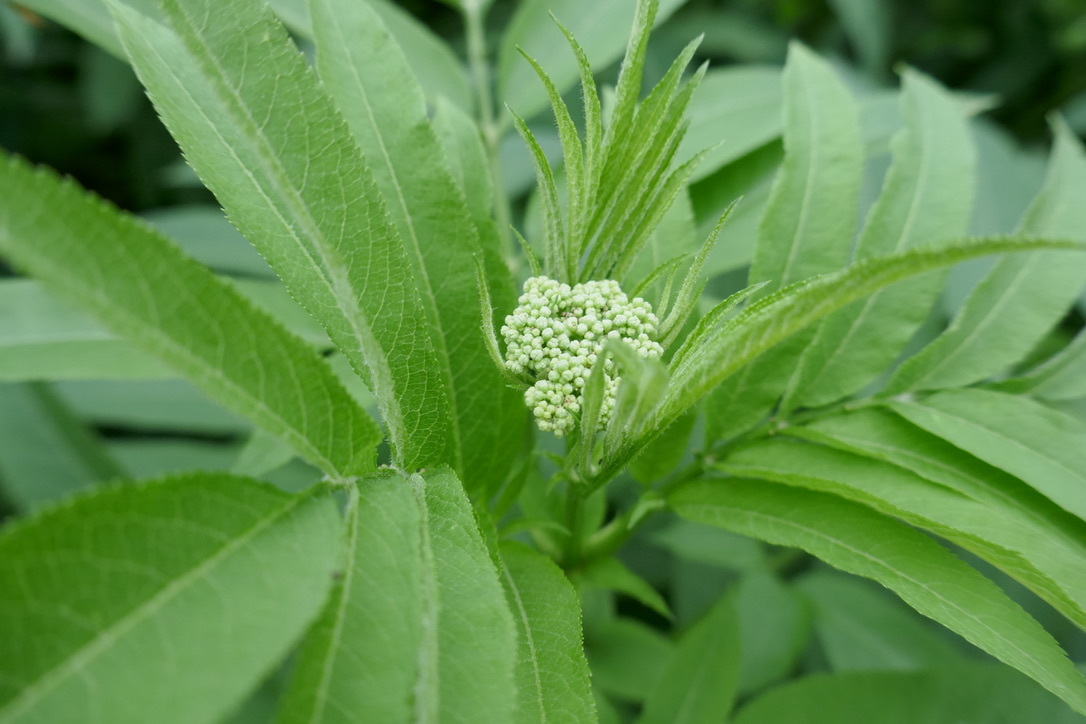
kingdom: Plantae
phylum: Tracheophyta
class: Magnoliopsida
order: Dipsacales
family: Viburnaceae
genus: Sambucus
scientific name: Sambucus ebulus
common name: Dwarf elder
